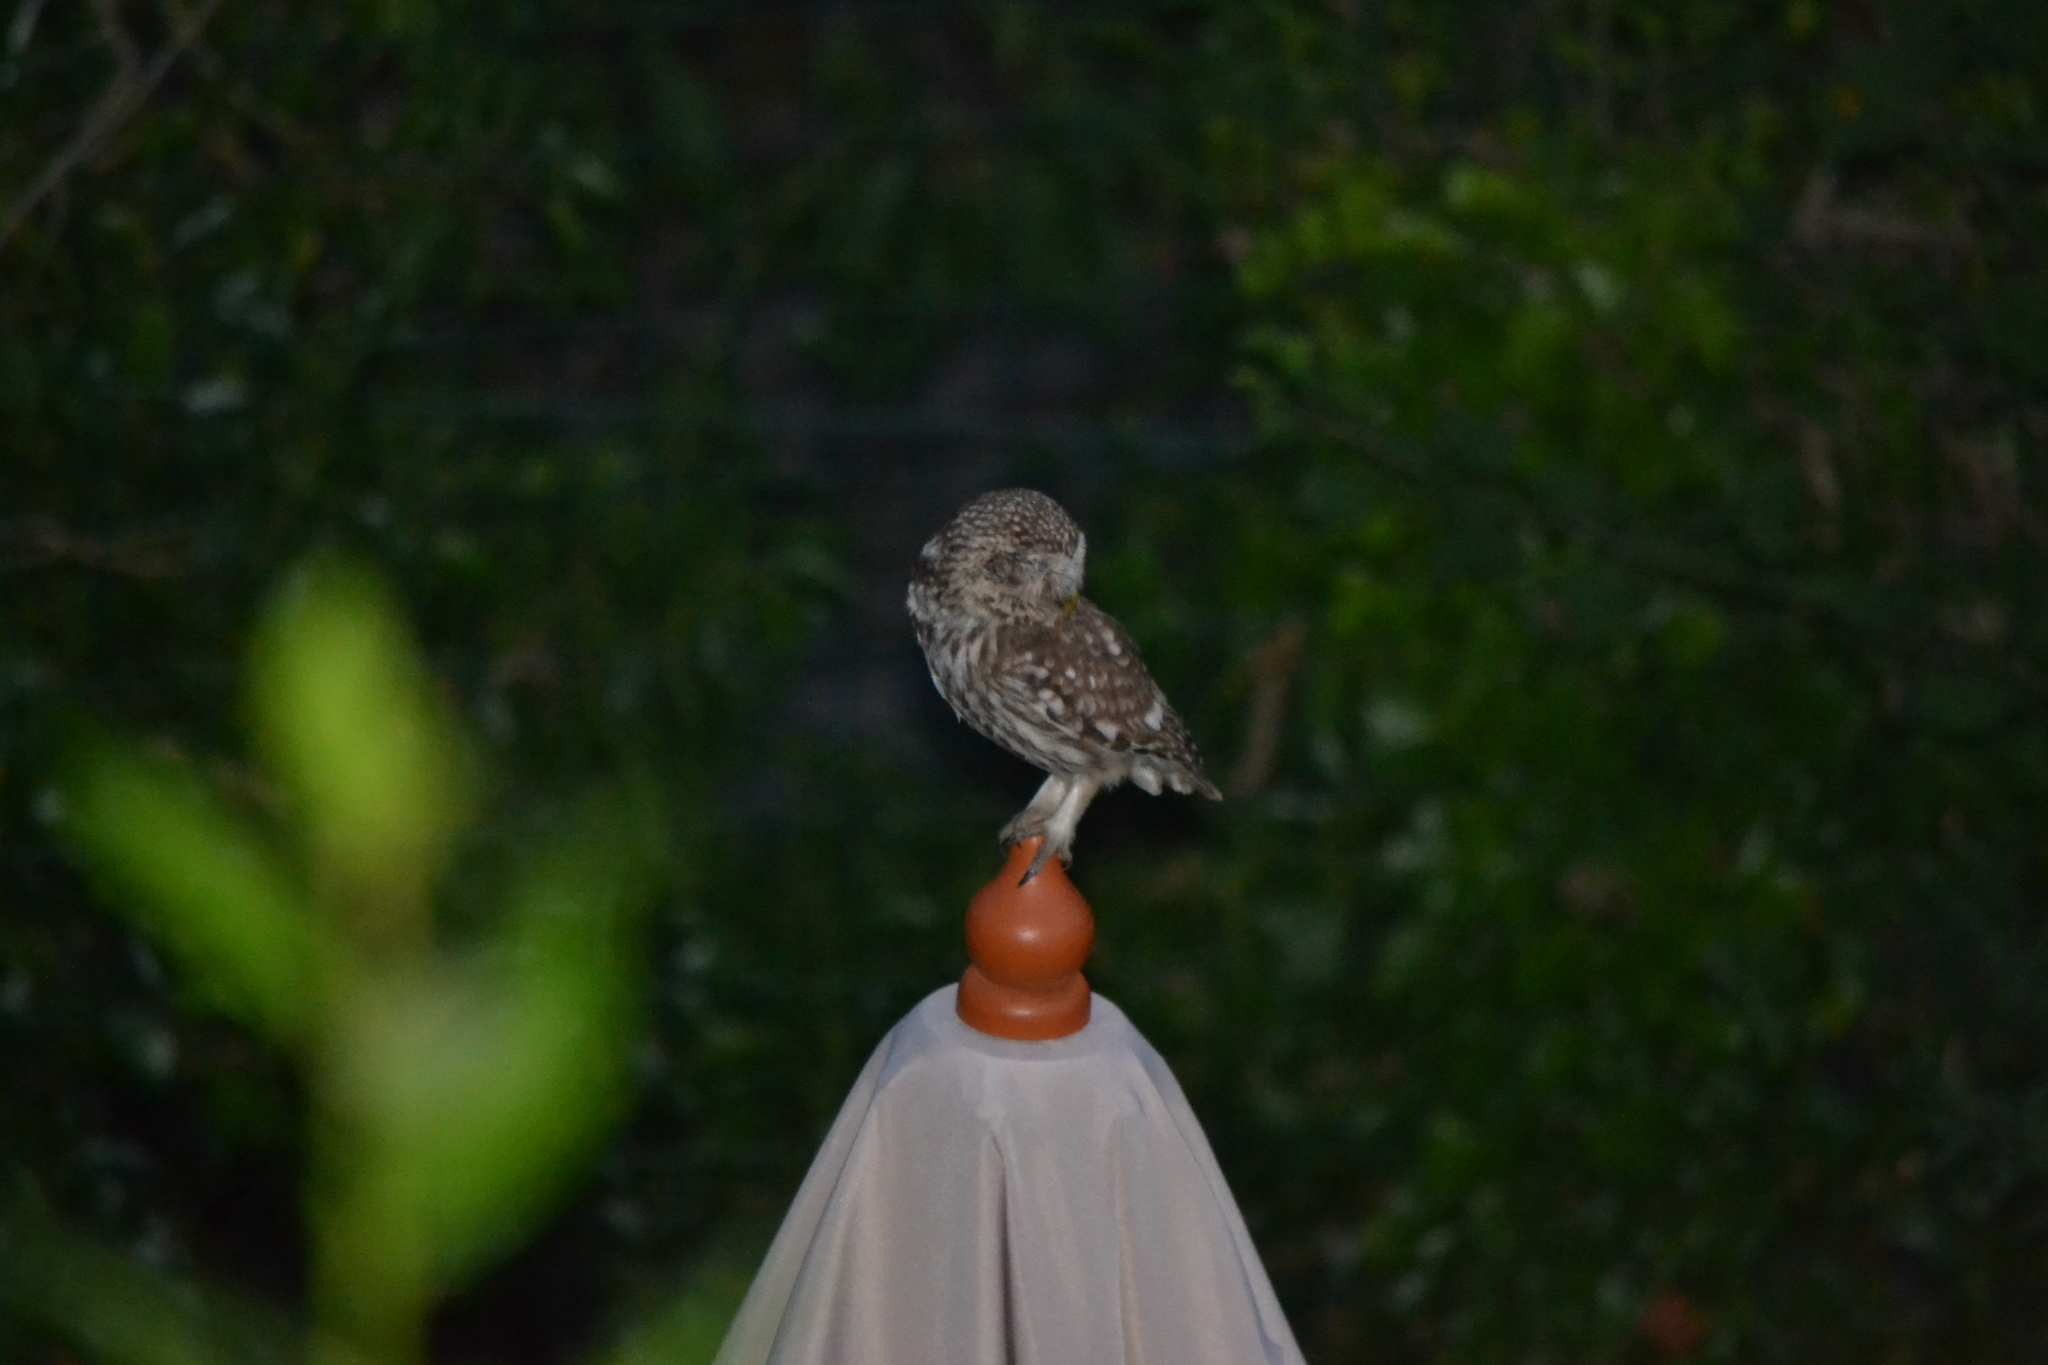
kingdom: Animalia
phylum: Chordata
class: Aves
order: Strigiformes
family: Strigidae
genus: Athene
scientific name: Athene noctua
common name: Little owl
